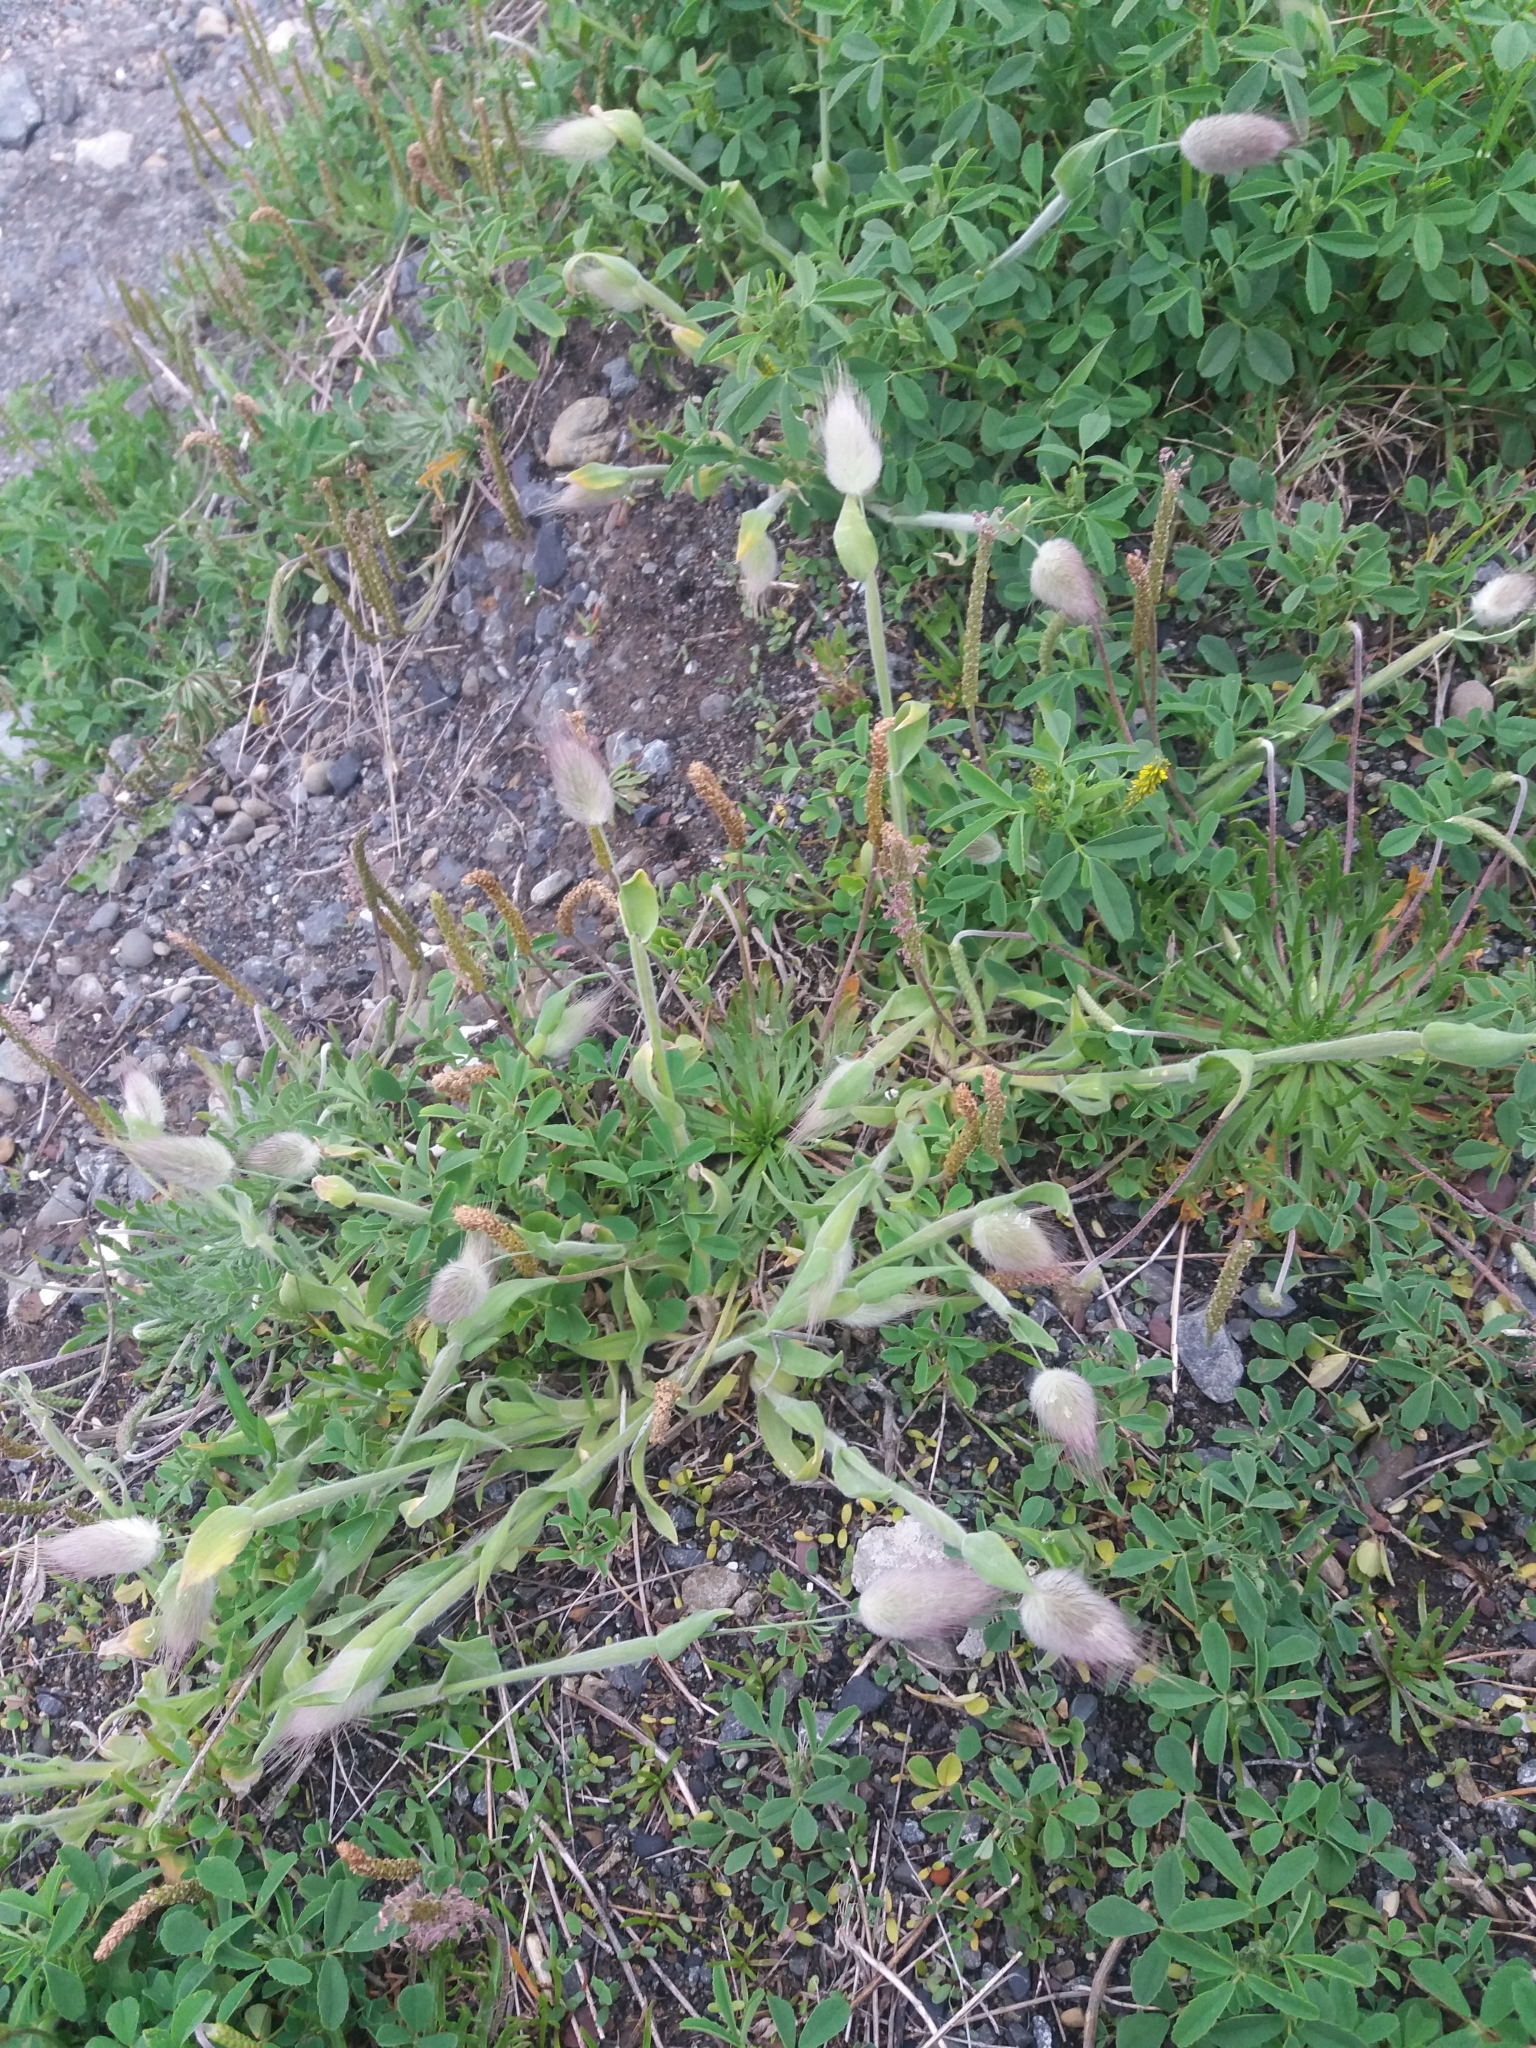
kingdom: Plantae
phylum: Tracheophyta
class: Liliopsida
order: Poales
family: Poaceae
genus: Lagurus
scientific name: Lagurus ovatus
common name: Hare's-tail
